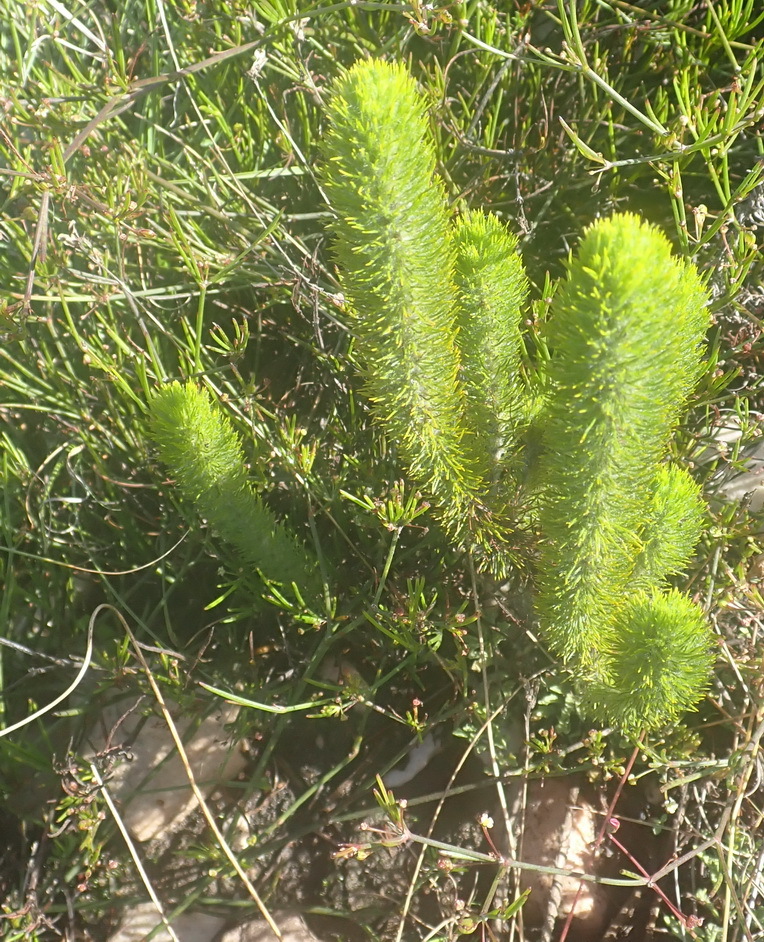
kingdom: Plantae
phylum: Tracheophyta
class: Magnoliopsida
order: Fabales
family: Fabaceae
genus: Aspalathus
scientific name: Aspalathus alopecurus
